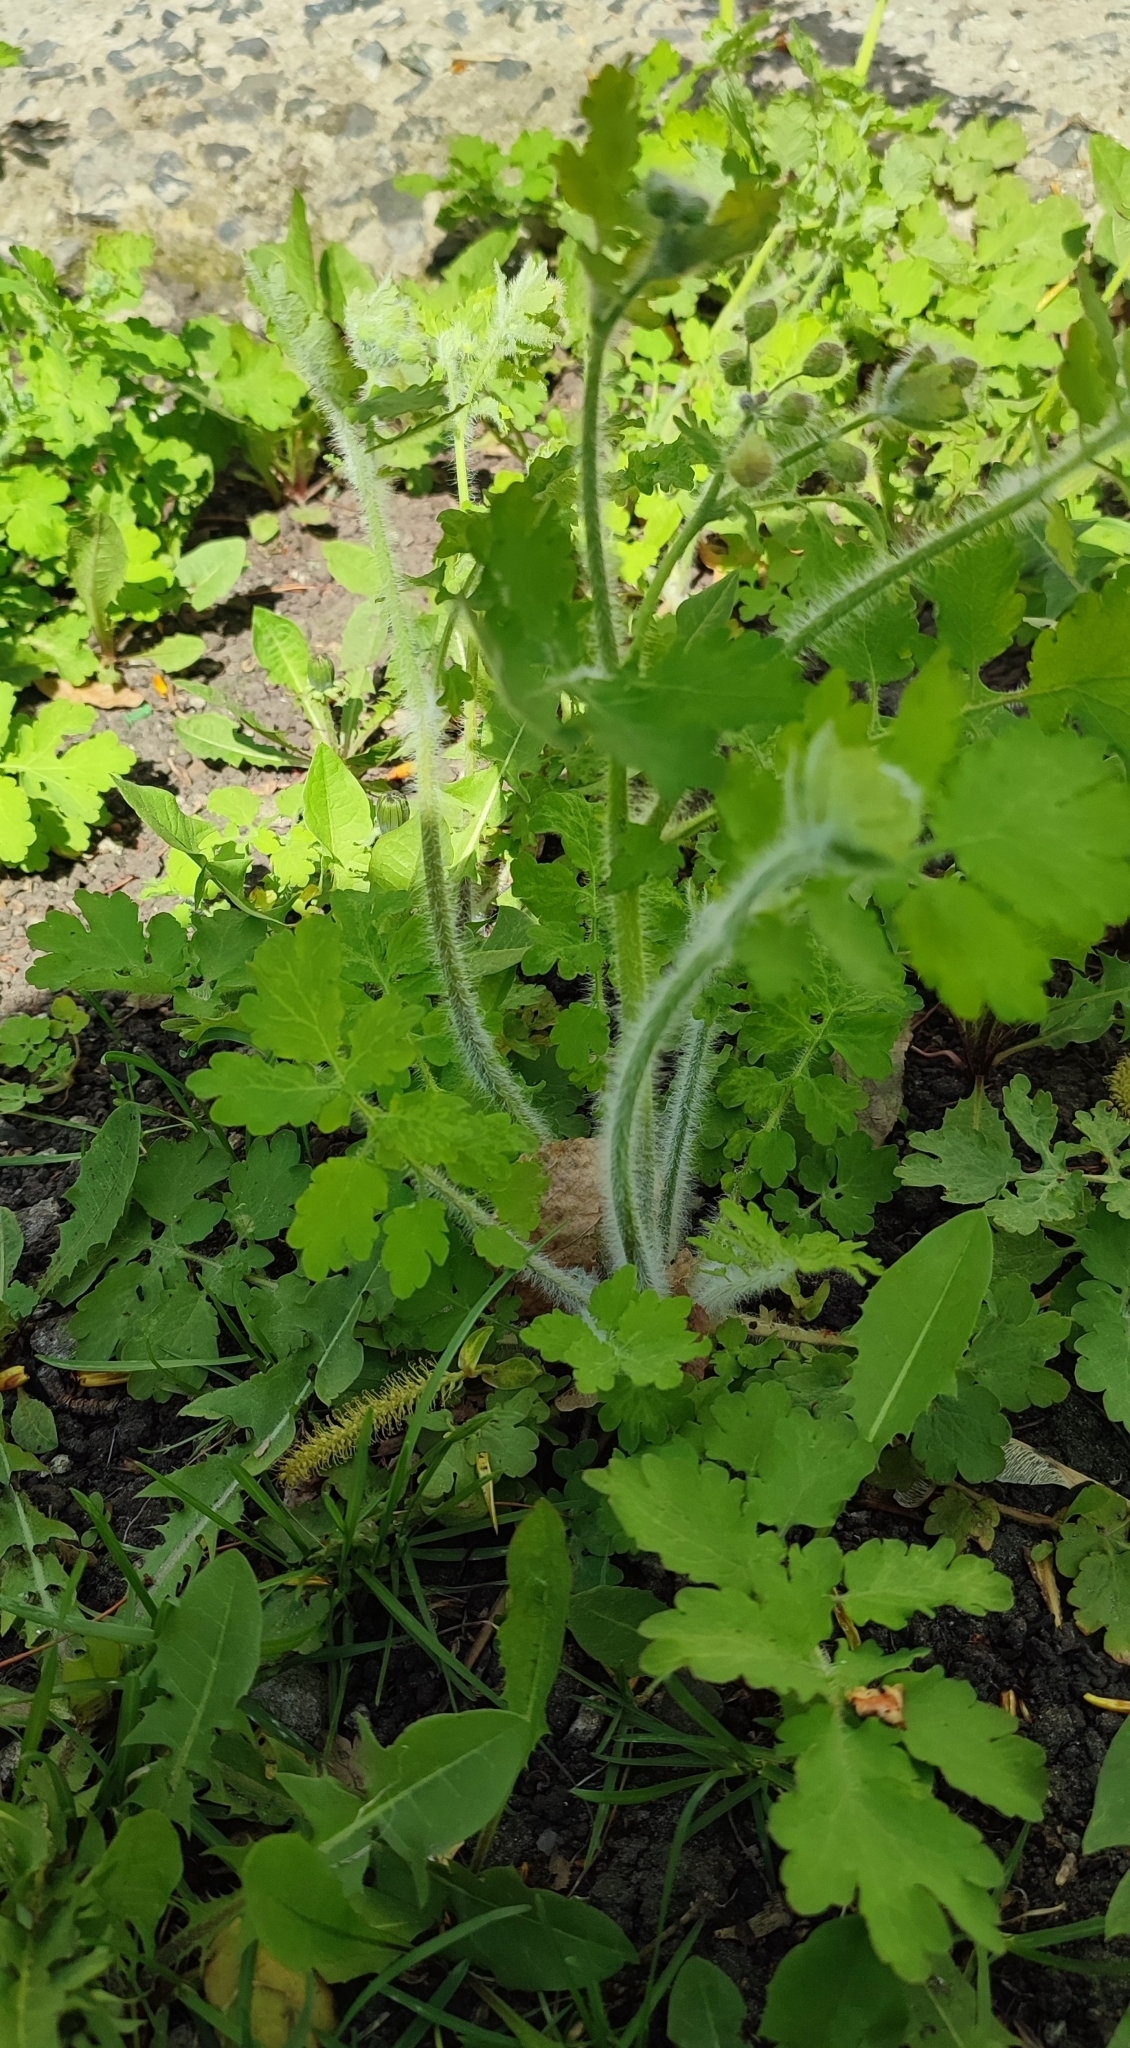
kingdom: Plantae
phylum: Tracheophyta
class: Magnoliopsida
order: Ranunculales
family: Papaveraceae
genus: Chelidonium
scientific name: Chelidonium majus
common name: Greater celandine
